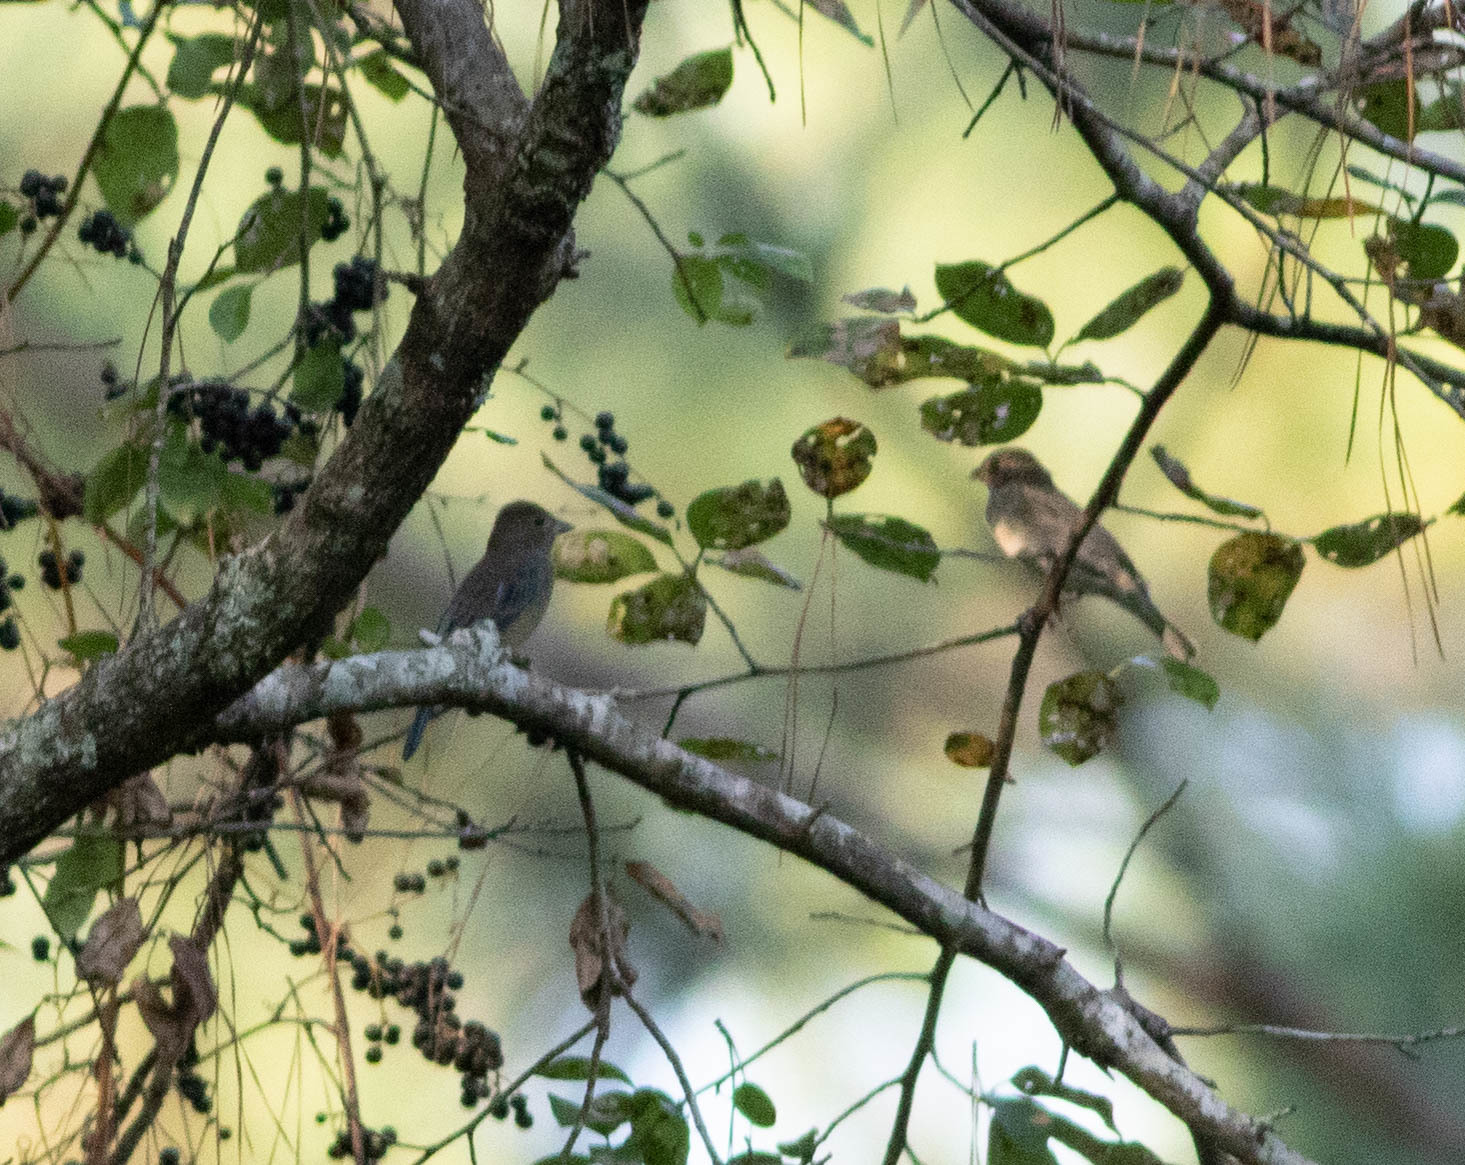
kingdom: Animalia
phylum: Chordata
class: Aves
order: Passeriformes
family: Cardinalidae
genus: Passerina
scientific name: Passerina cyanea
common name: Indigo bunting
